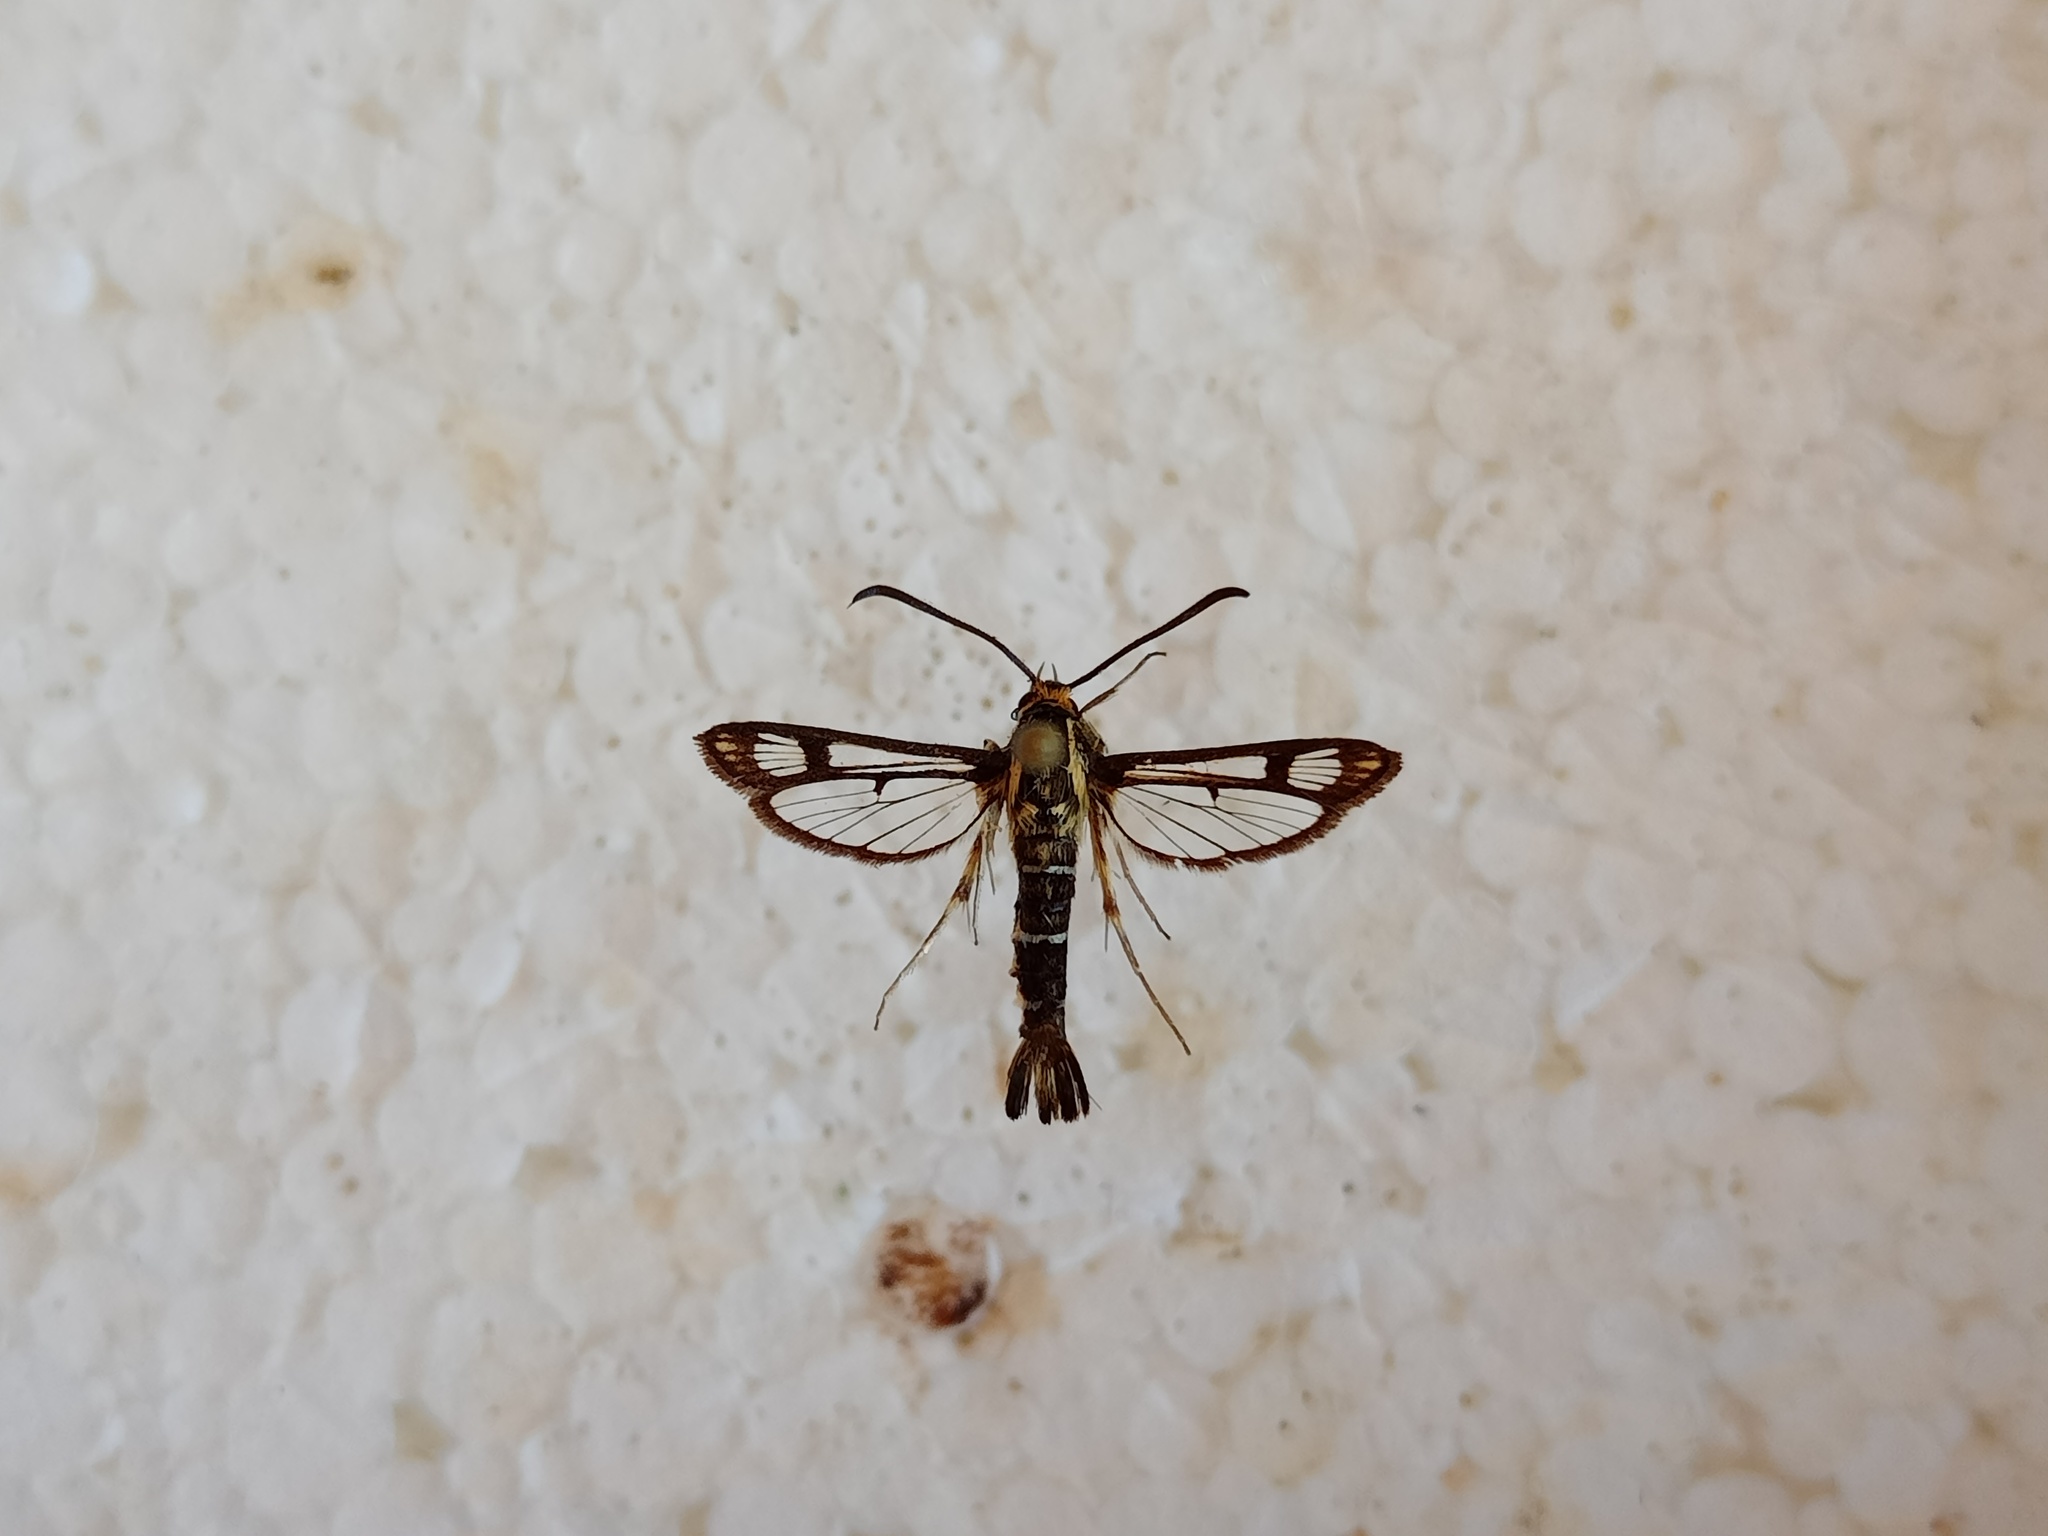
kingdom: Animalia
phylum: Arthropoda
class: Insecta
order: Lepidoptera
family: Sesiidae
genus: Pyropteron
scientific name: Pyropteron triannuliformis
